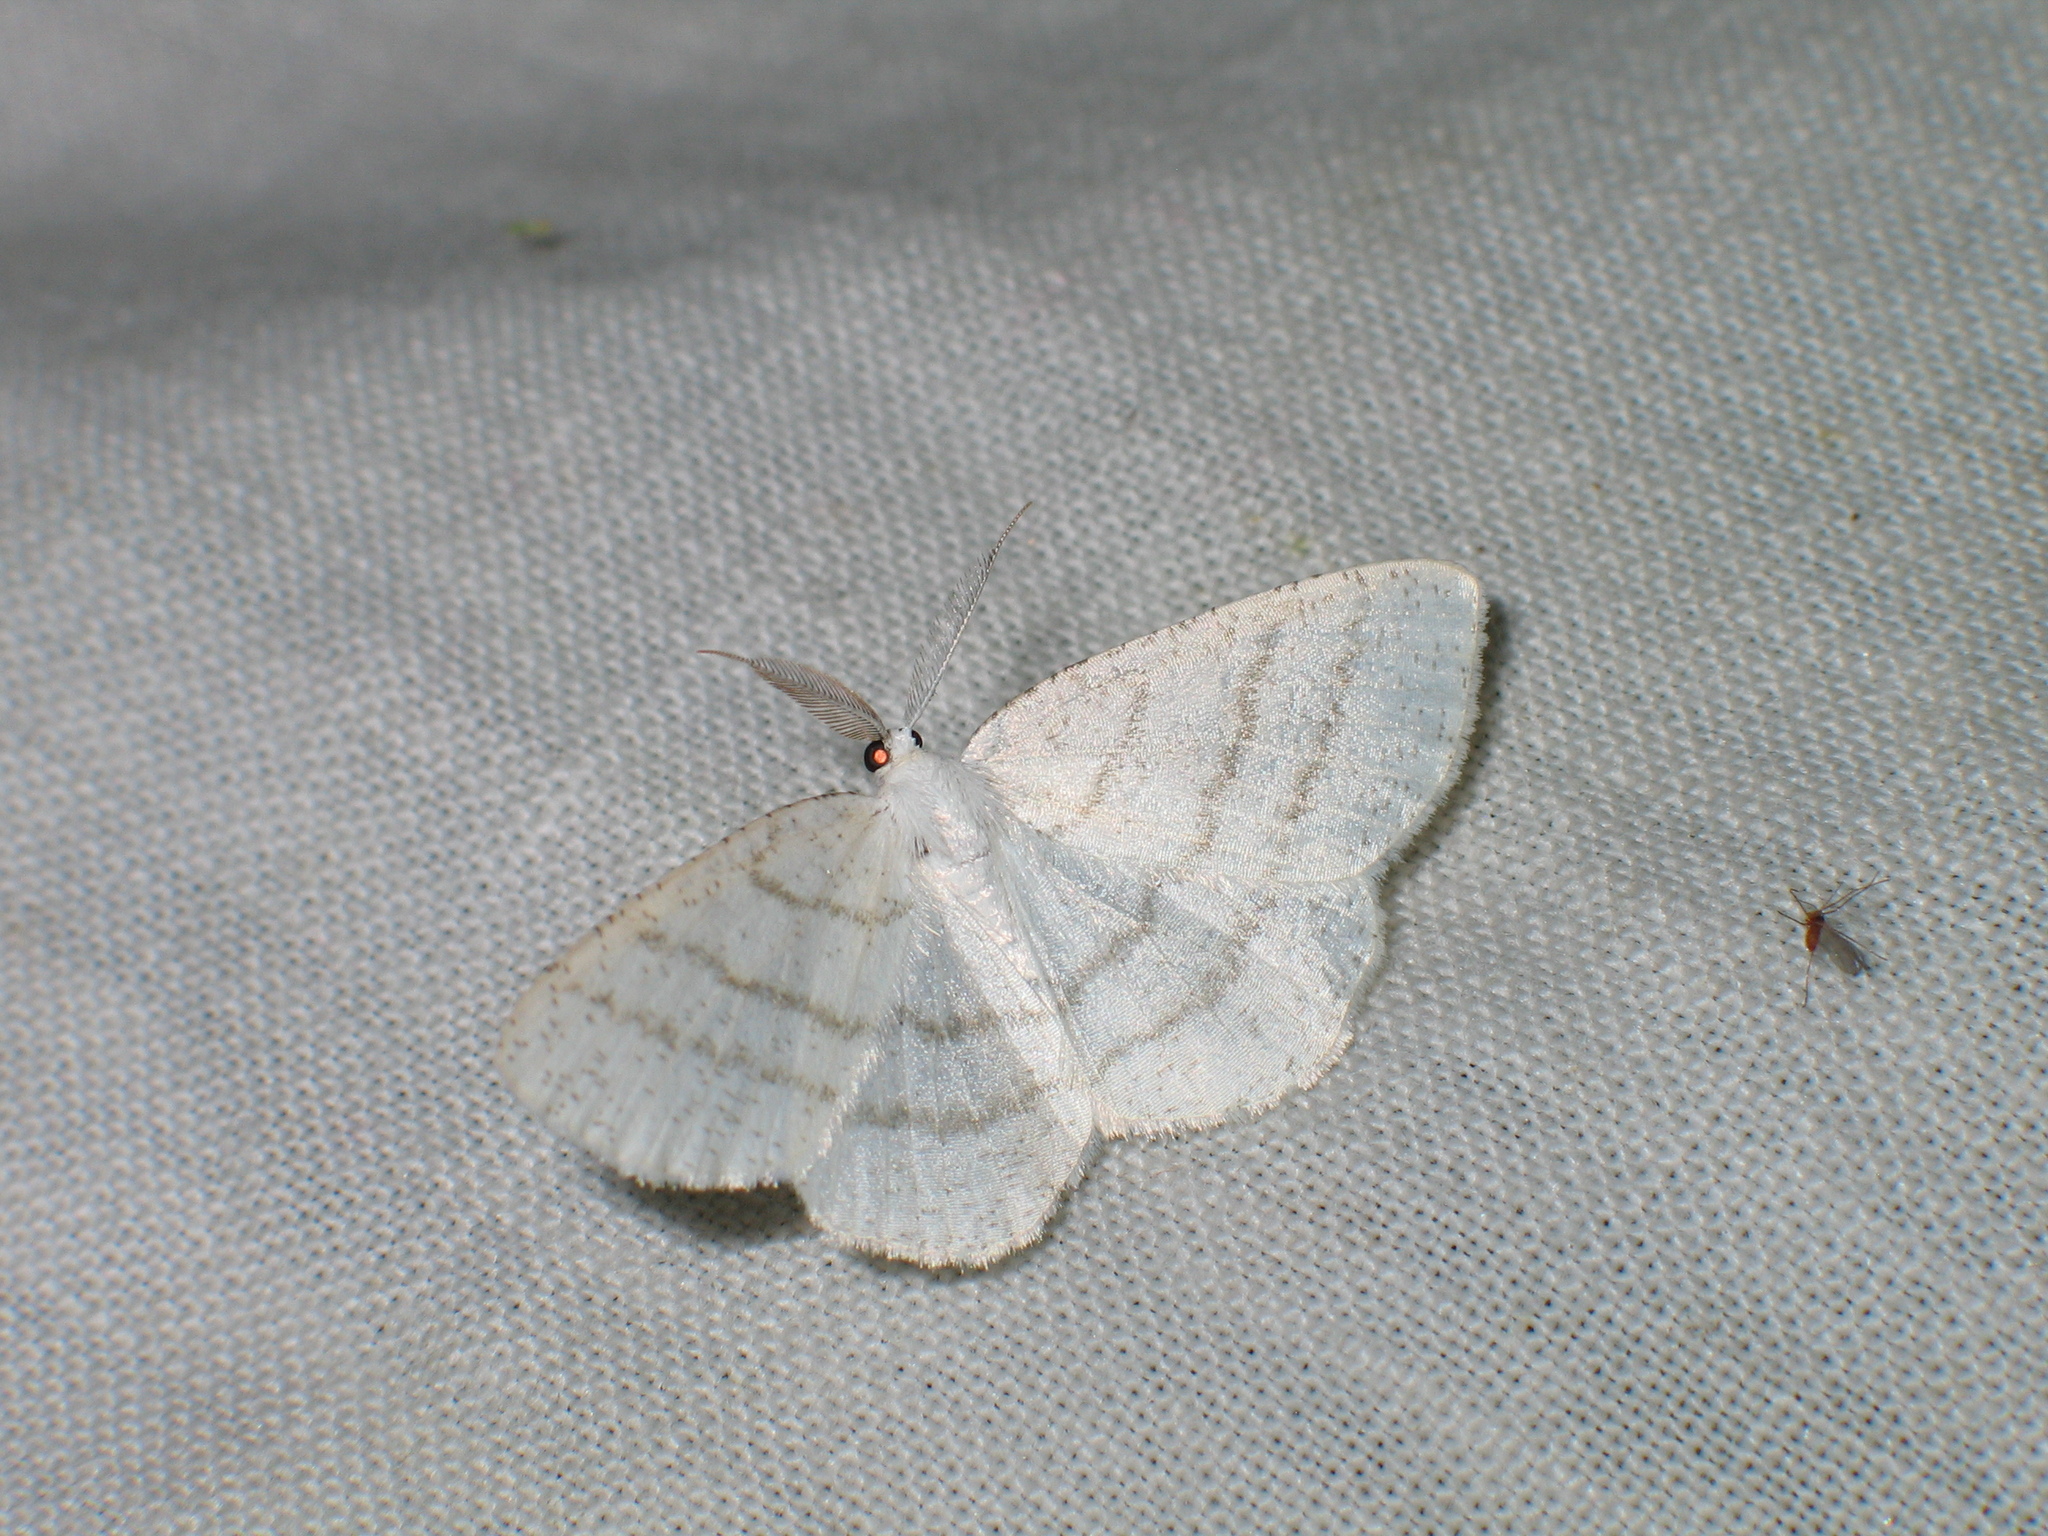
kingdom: Animalia
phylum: Arthropoda
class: Insecta
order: Lepidoptera
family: Geometridae
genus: Cabera
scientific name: Cabera pusaria
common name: Common white wave
